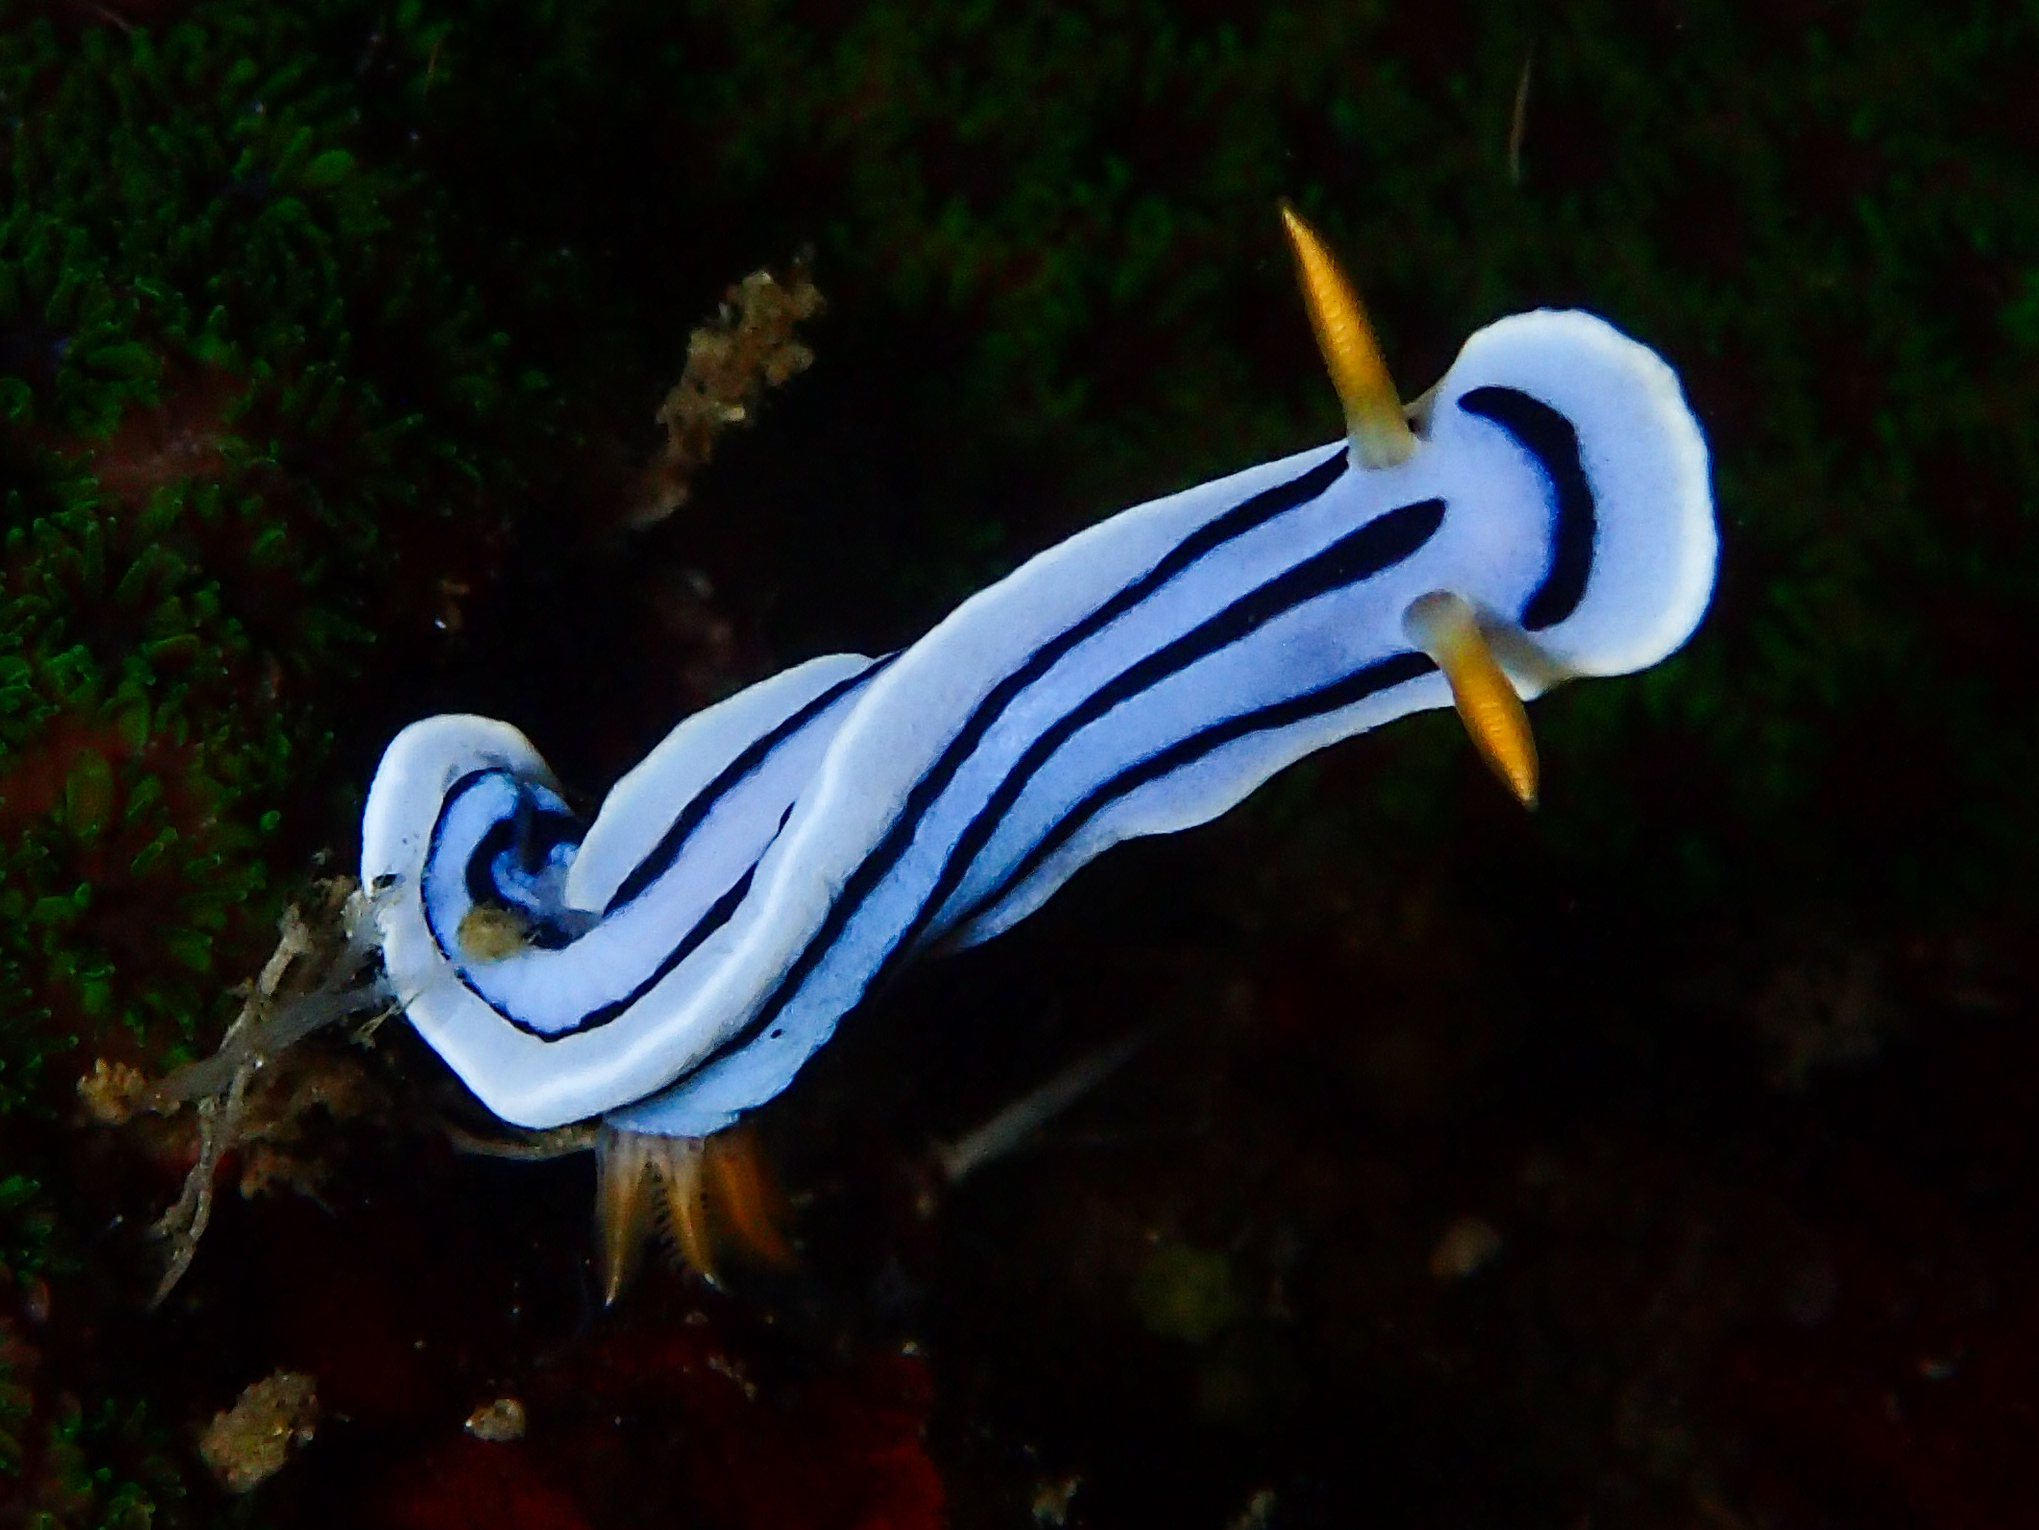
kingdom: Animalia
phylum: Mollusca
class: Gastropoda
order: Nudibranchia
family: Chromodorididae
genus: Chromodoris
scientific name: Chromodoris lochi
